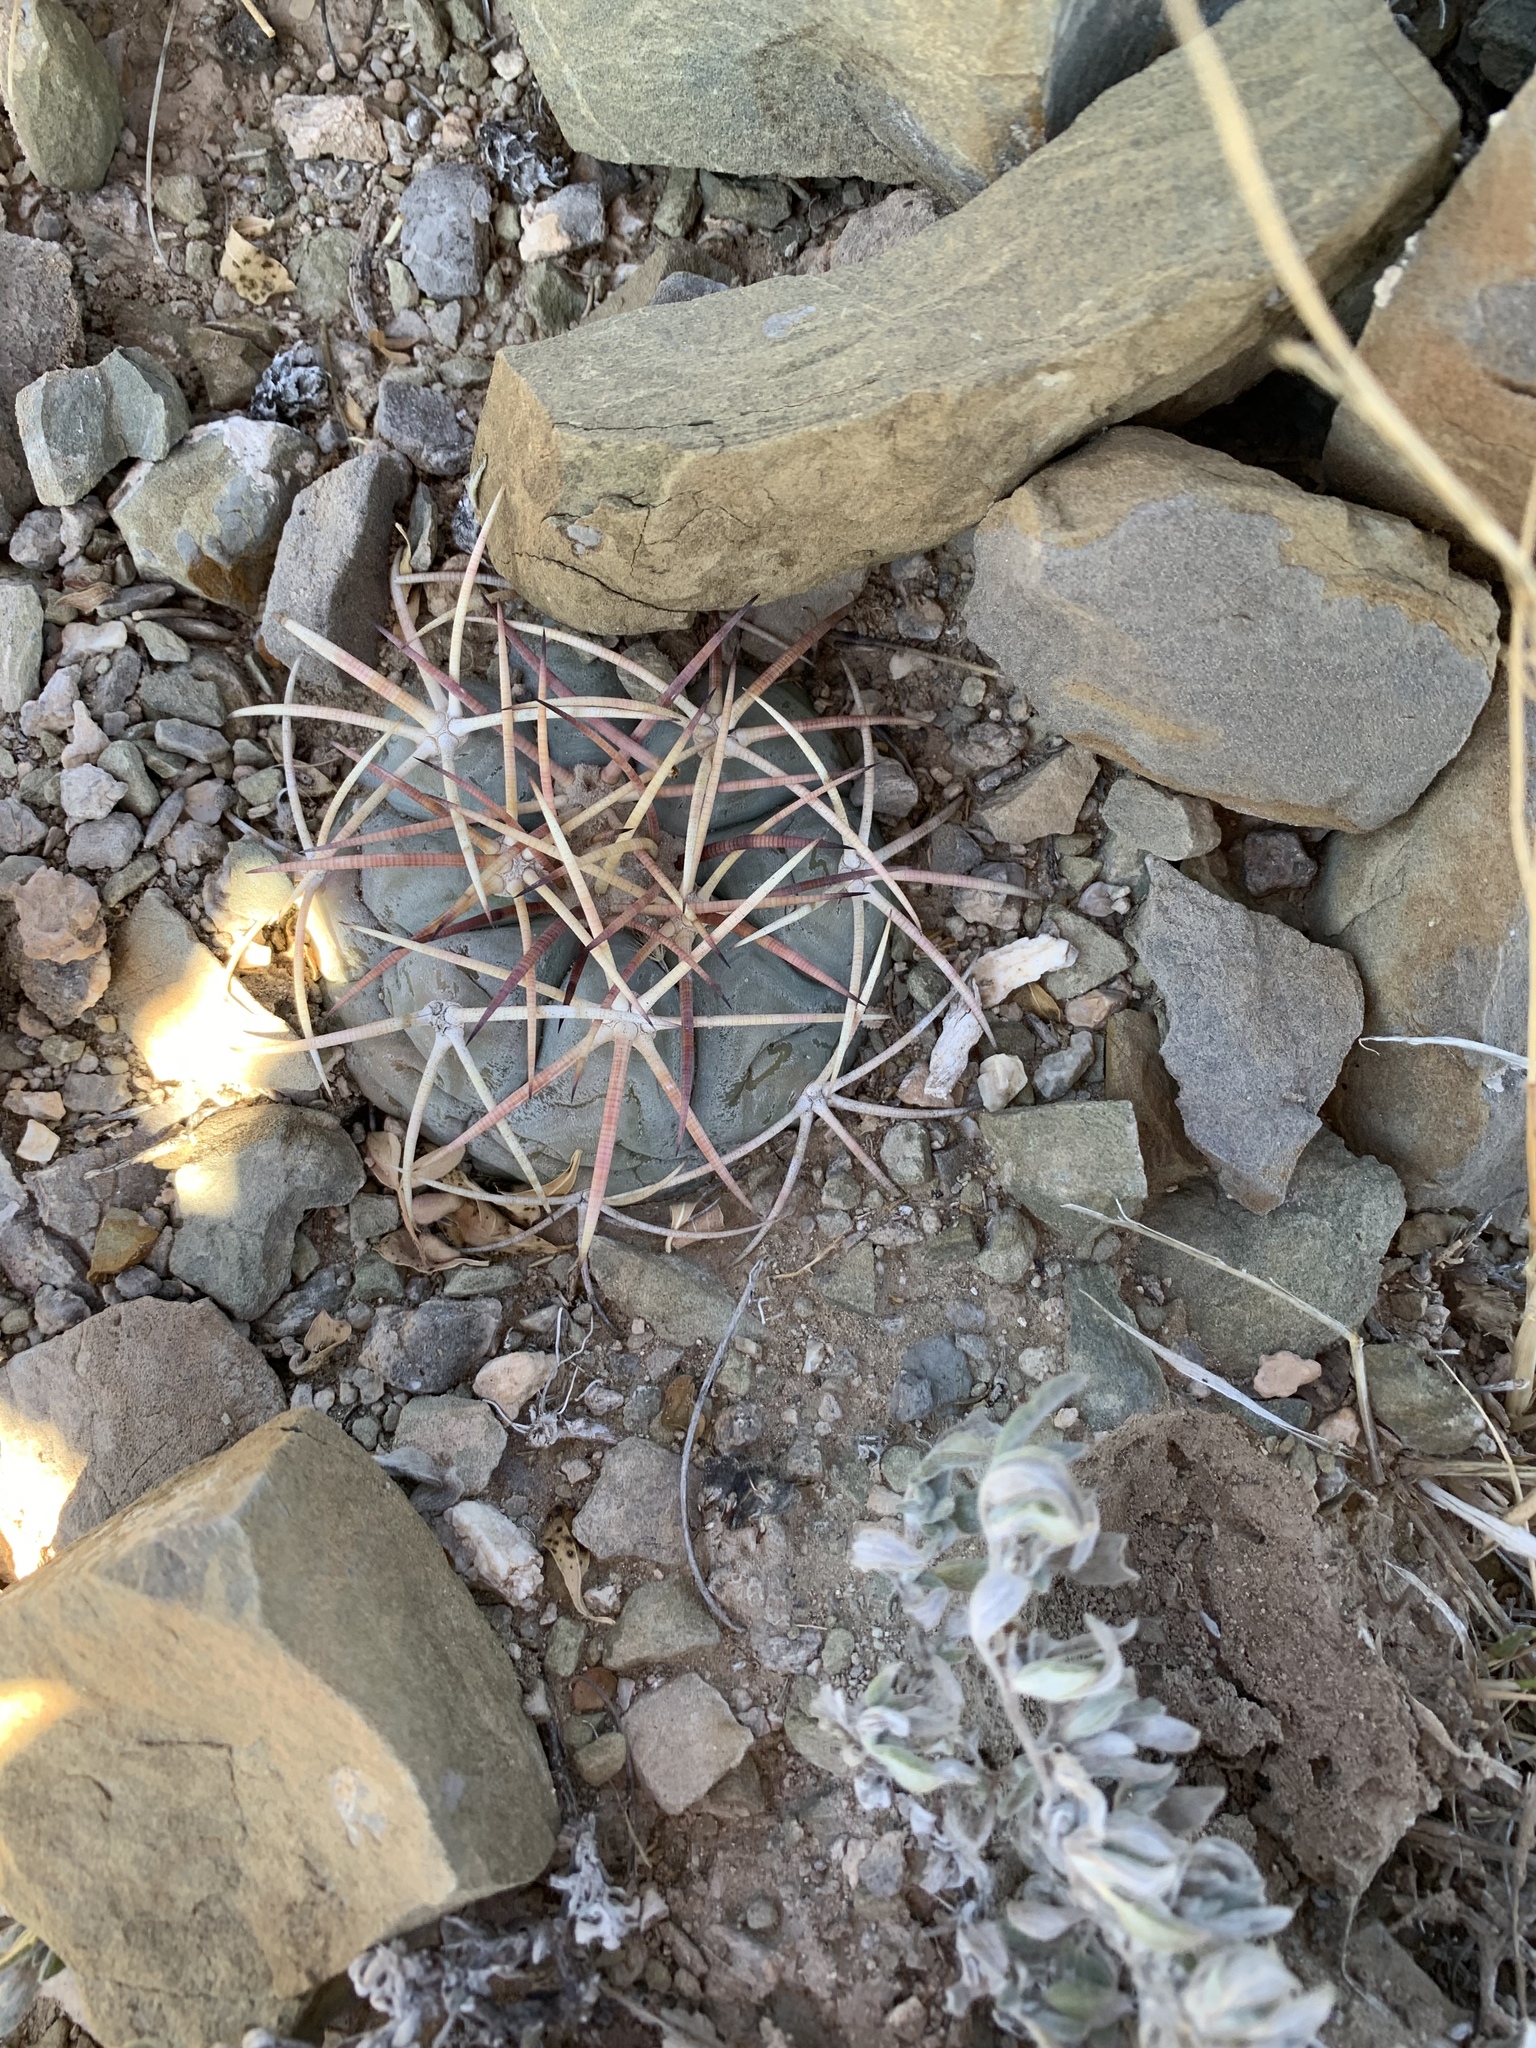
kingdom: Plantae
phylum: Tracheophyta
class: Magnoliopsida
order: Caryophyllales
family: Cactaceae
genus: Echinocactus
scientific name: Echinocactus horizonthalonius
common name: Devilshead
